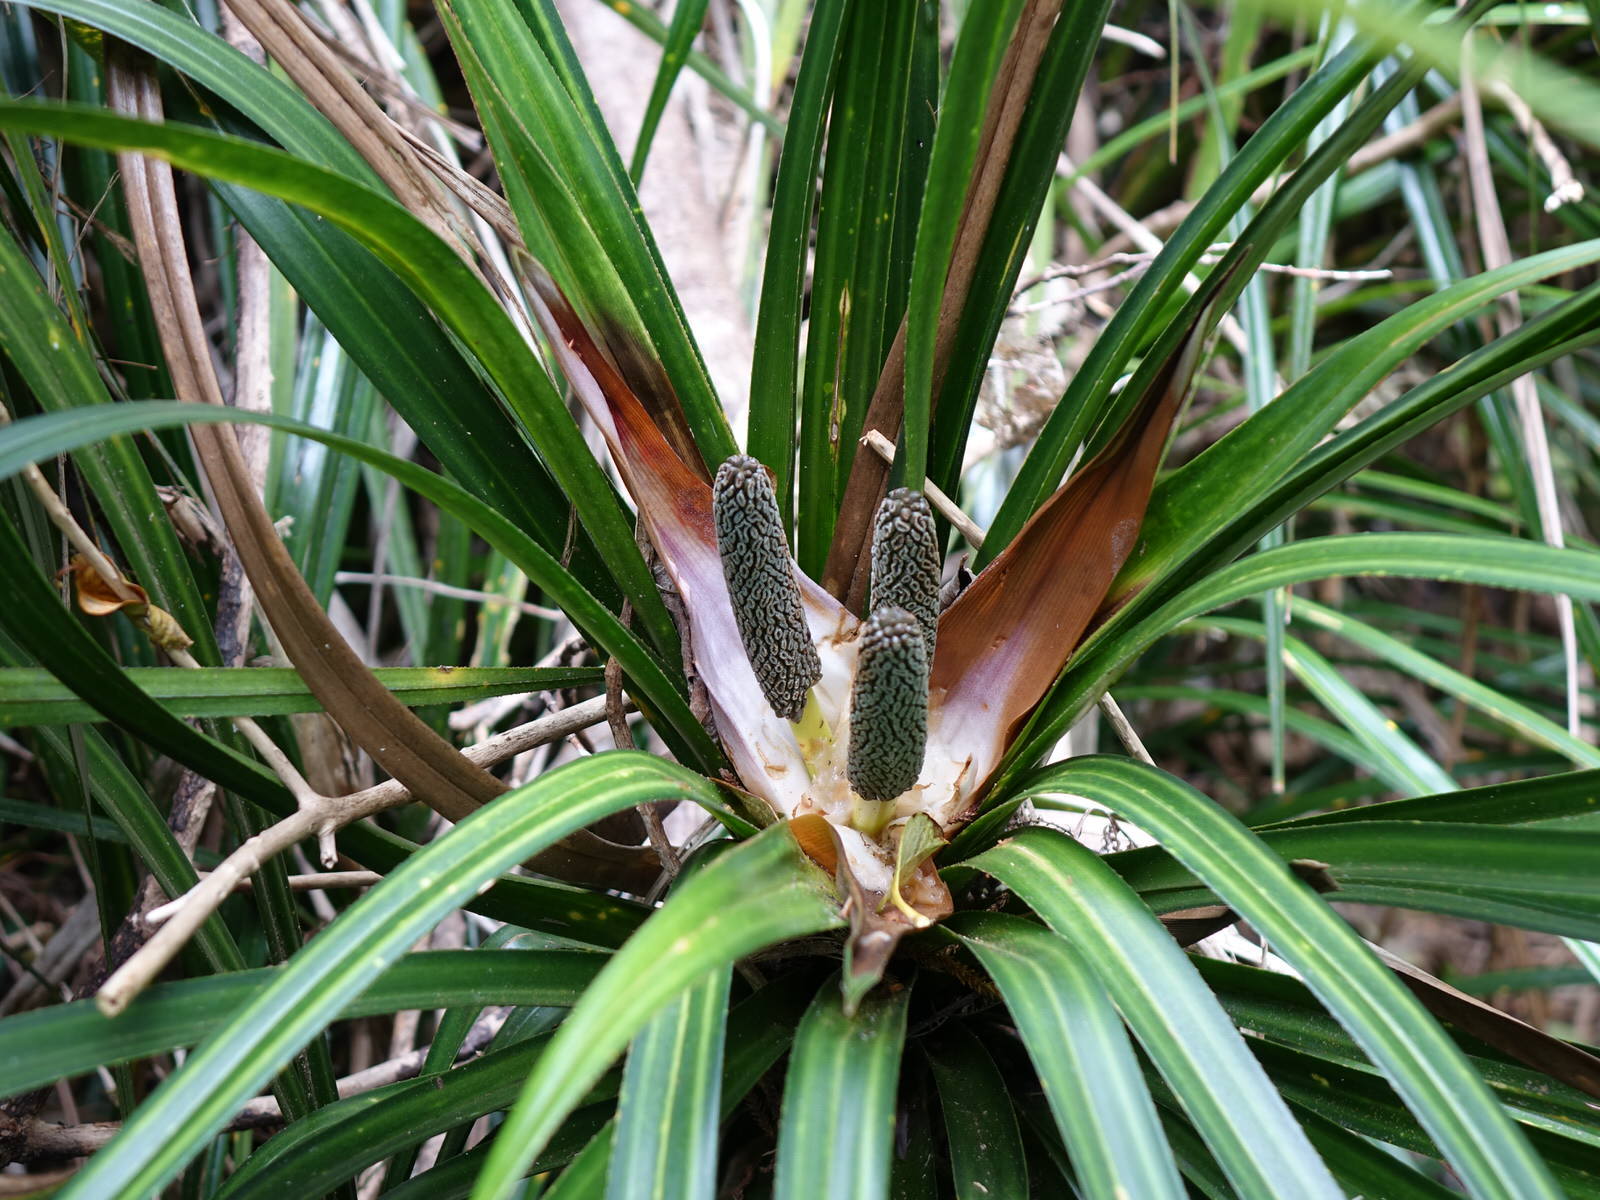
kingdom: Plantae
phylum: Tracheophyta
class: Liliopsida
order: Pandanales
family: Pandanaceae
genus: Freycinetia
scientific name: Freycinetia banksii
